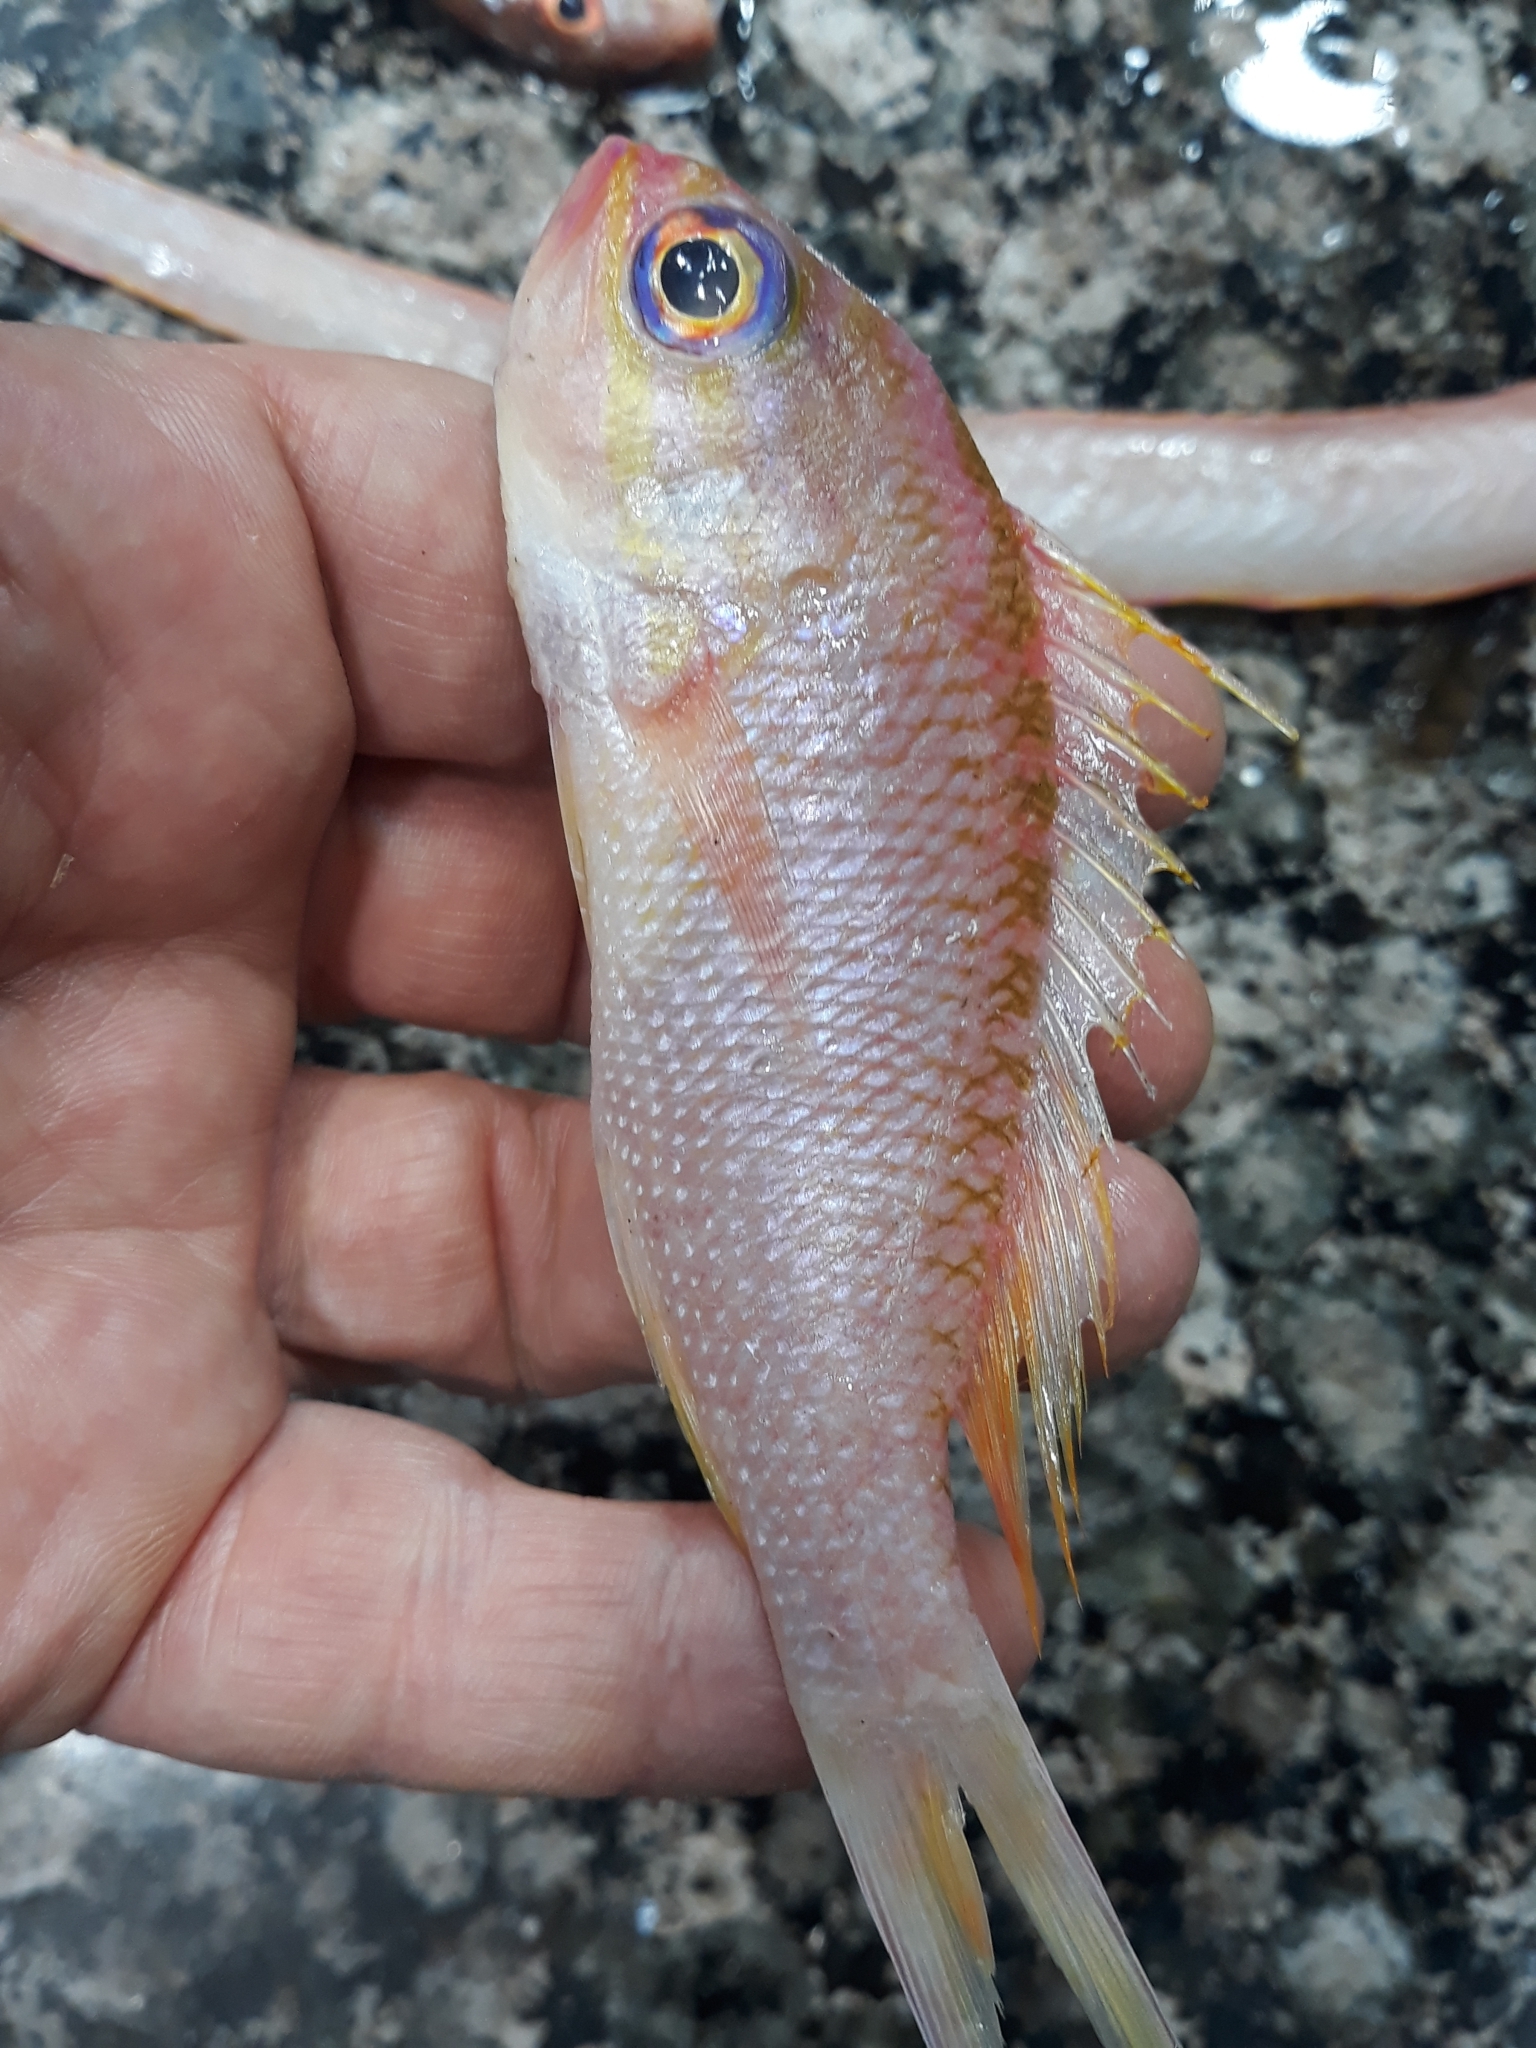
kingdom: Animalia
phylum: Chordata
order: Perciformes
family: Serranidae
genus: Anthias
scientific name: Anthias anthias
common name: Swallowtail seaperch
